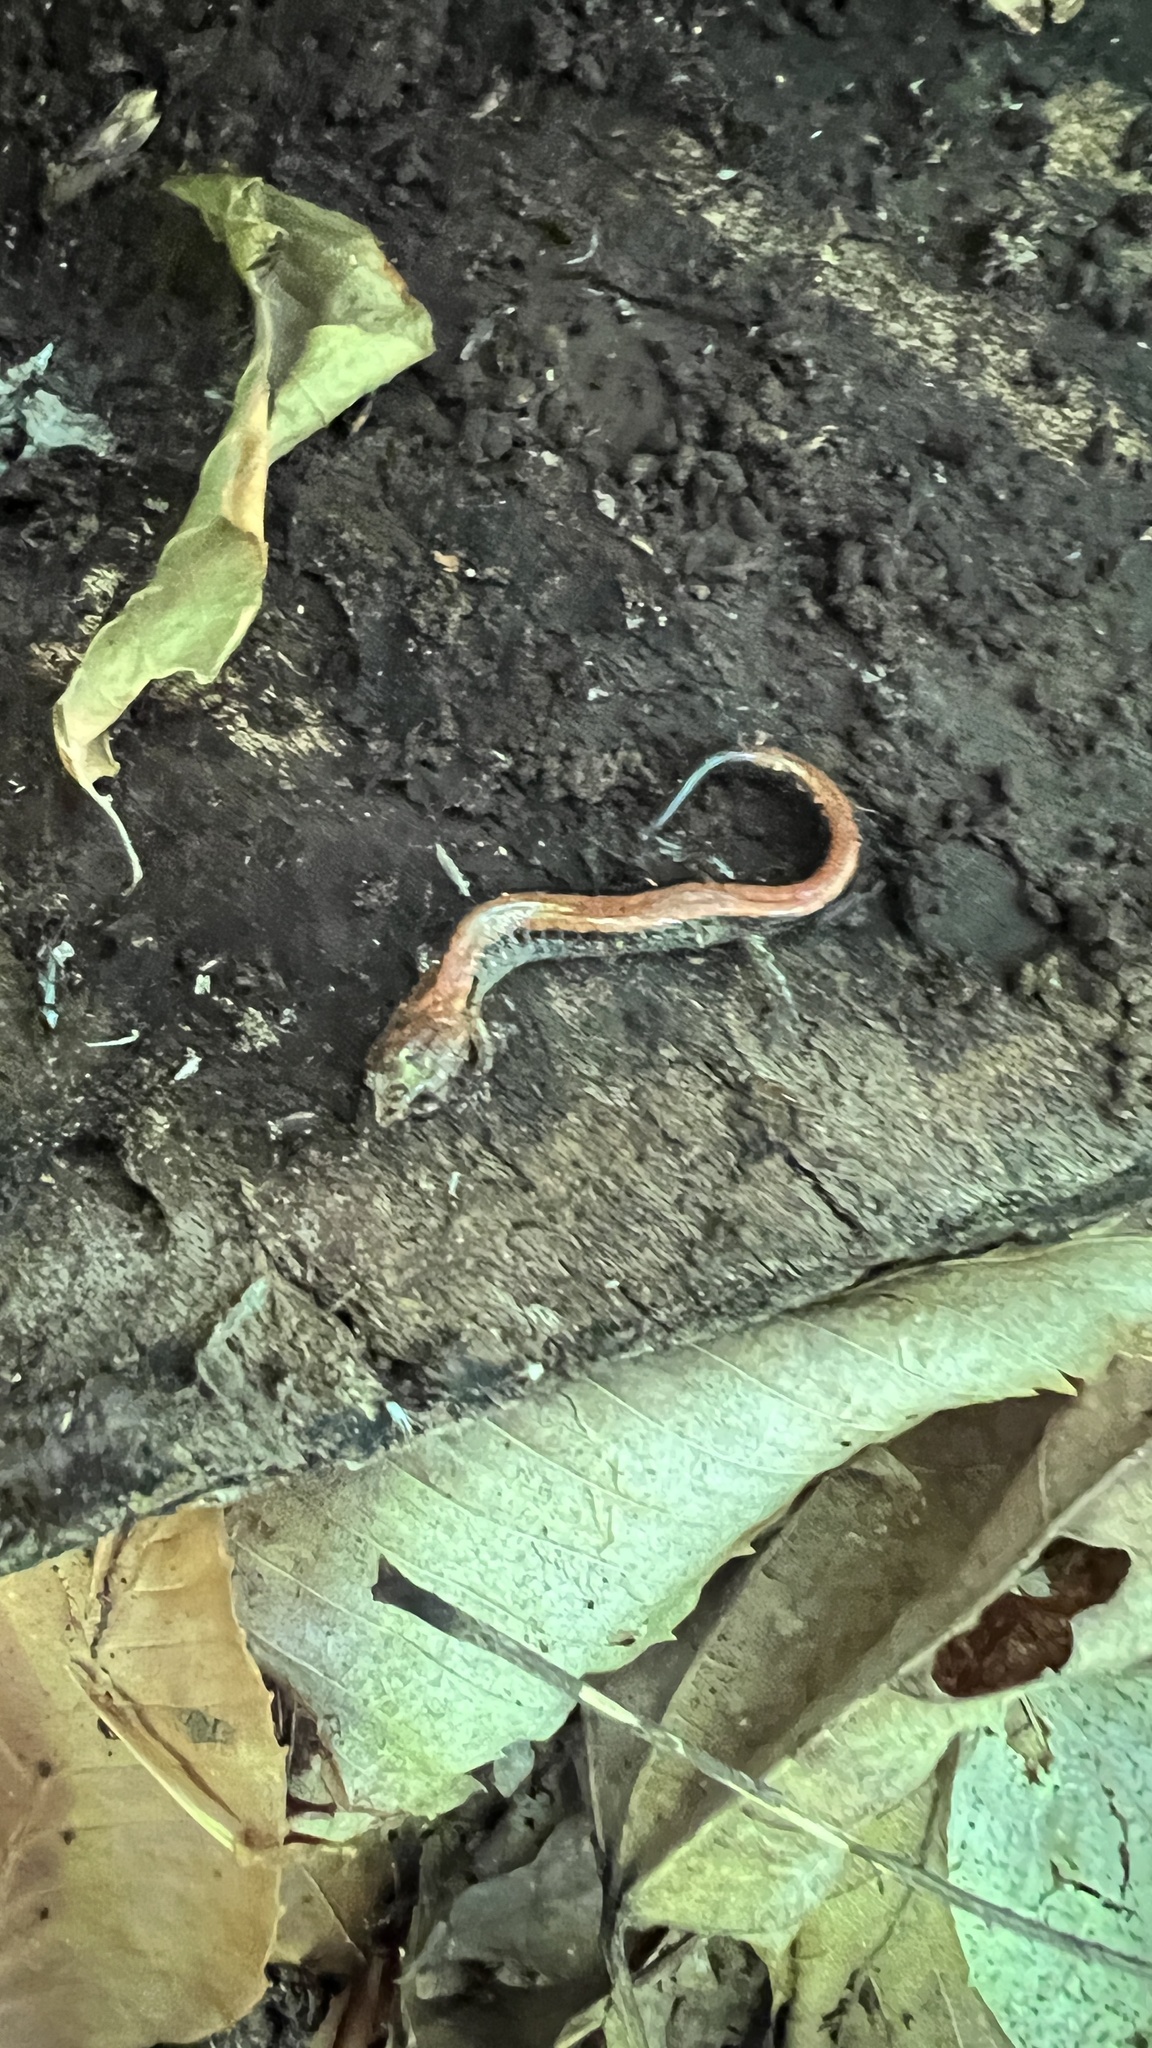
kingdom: Animalia
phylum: Chordata
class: Amphibia
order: Caudata
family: Plethodontidae
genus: Plethodon
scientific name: Plethodon cinereus
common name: Redback salamander
